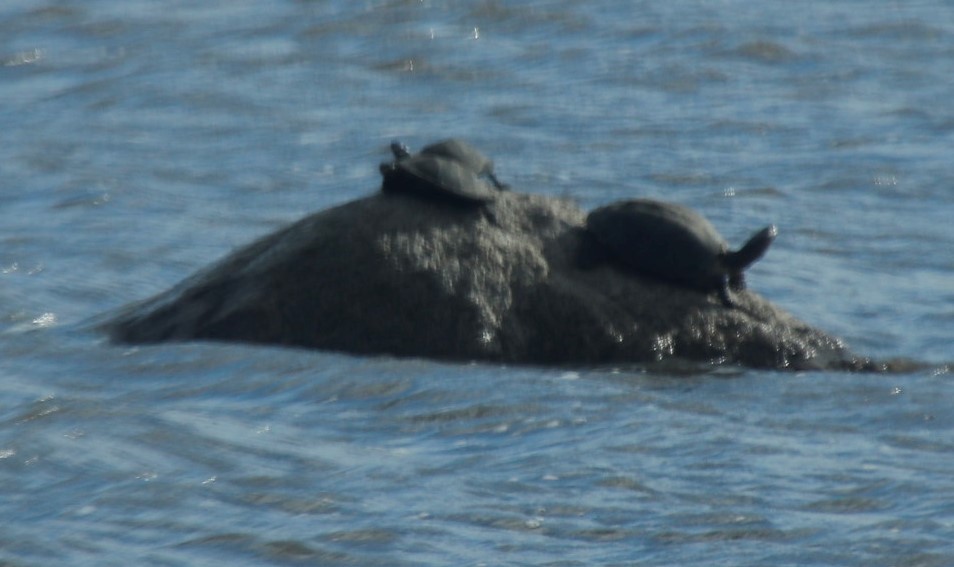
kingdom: Animalia
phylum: Chordata
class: Testudines
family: Pelomedusidae
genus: Pelusios
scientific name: Pelusios sinuatus
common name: Serrated hinged terrapin
